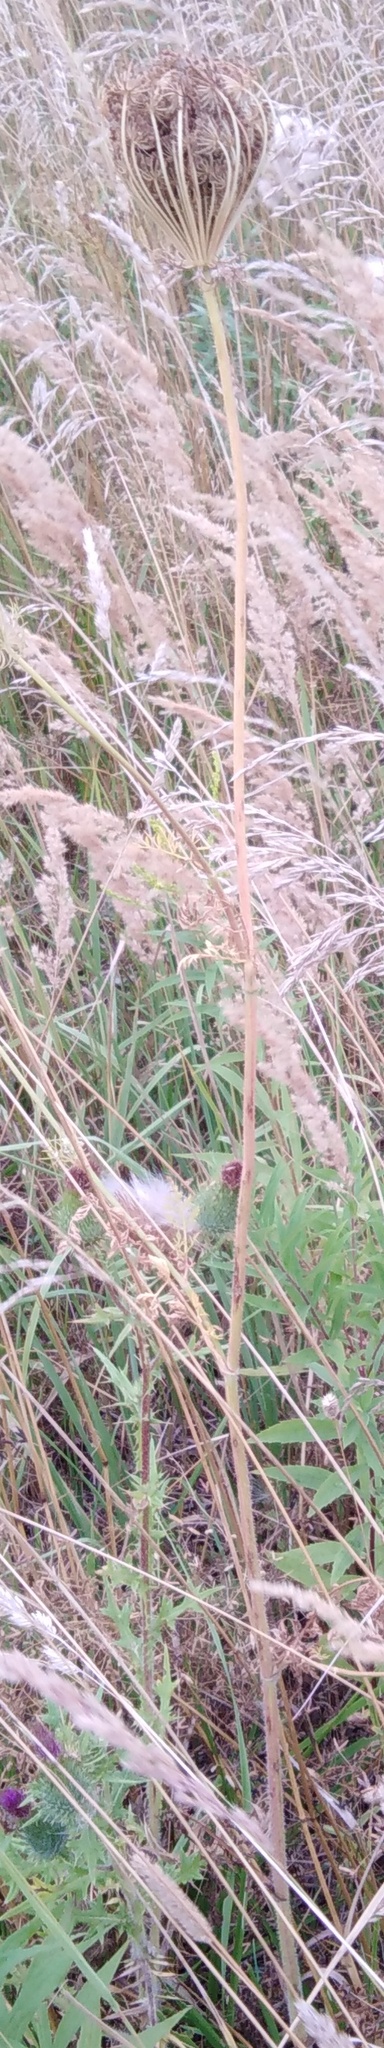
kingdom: Plantae
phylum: Tracheophyta
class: Magnoliopsida
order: Apiales
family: Apiaceae
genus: Daucus
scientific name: Daucus carota
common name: Wild carrot
